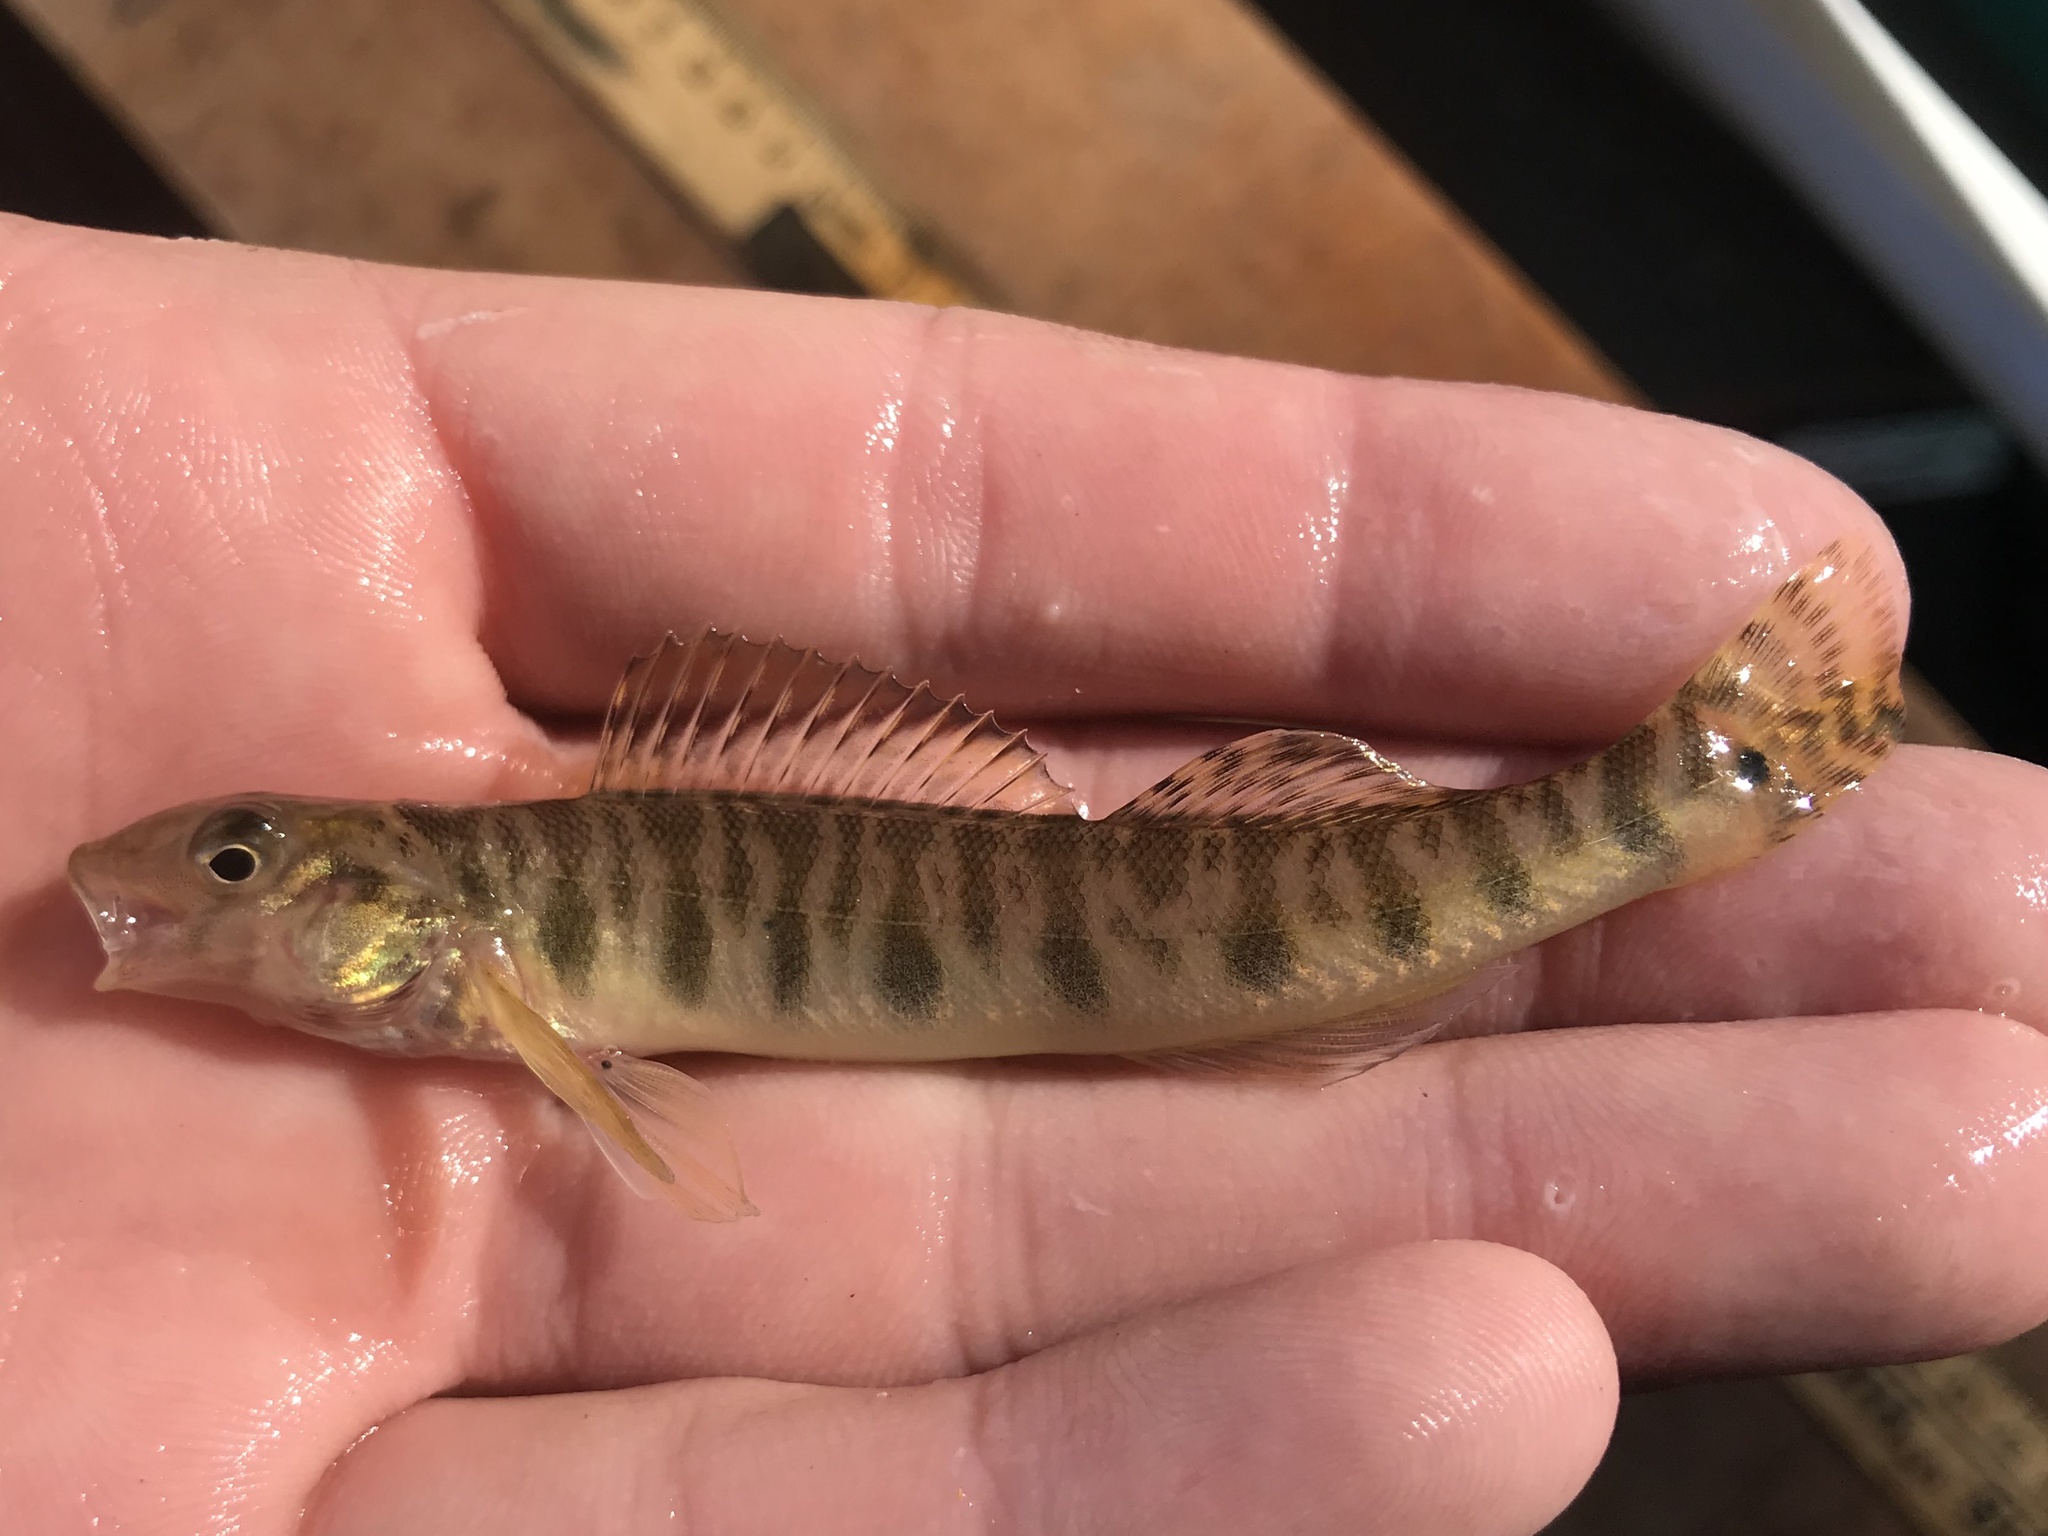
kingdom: Animalia
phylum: Chordata
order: Perciformes
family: Percidae
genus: Percina
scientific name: Percina carbonaria
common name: Texas logperch
